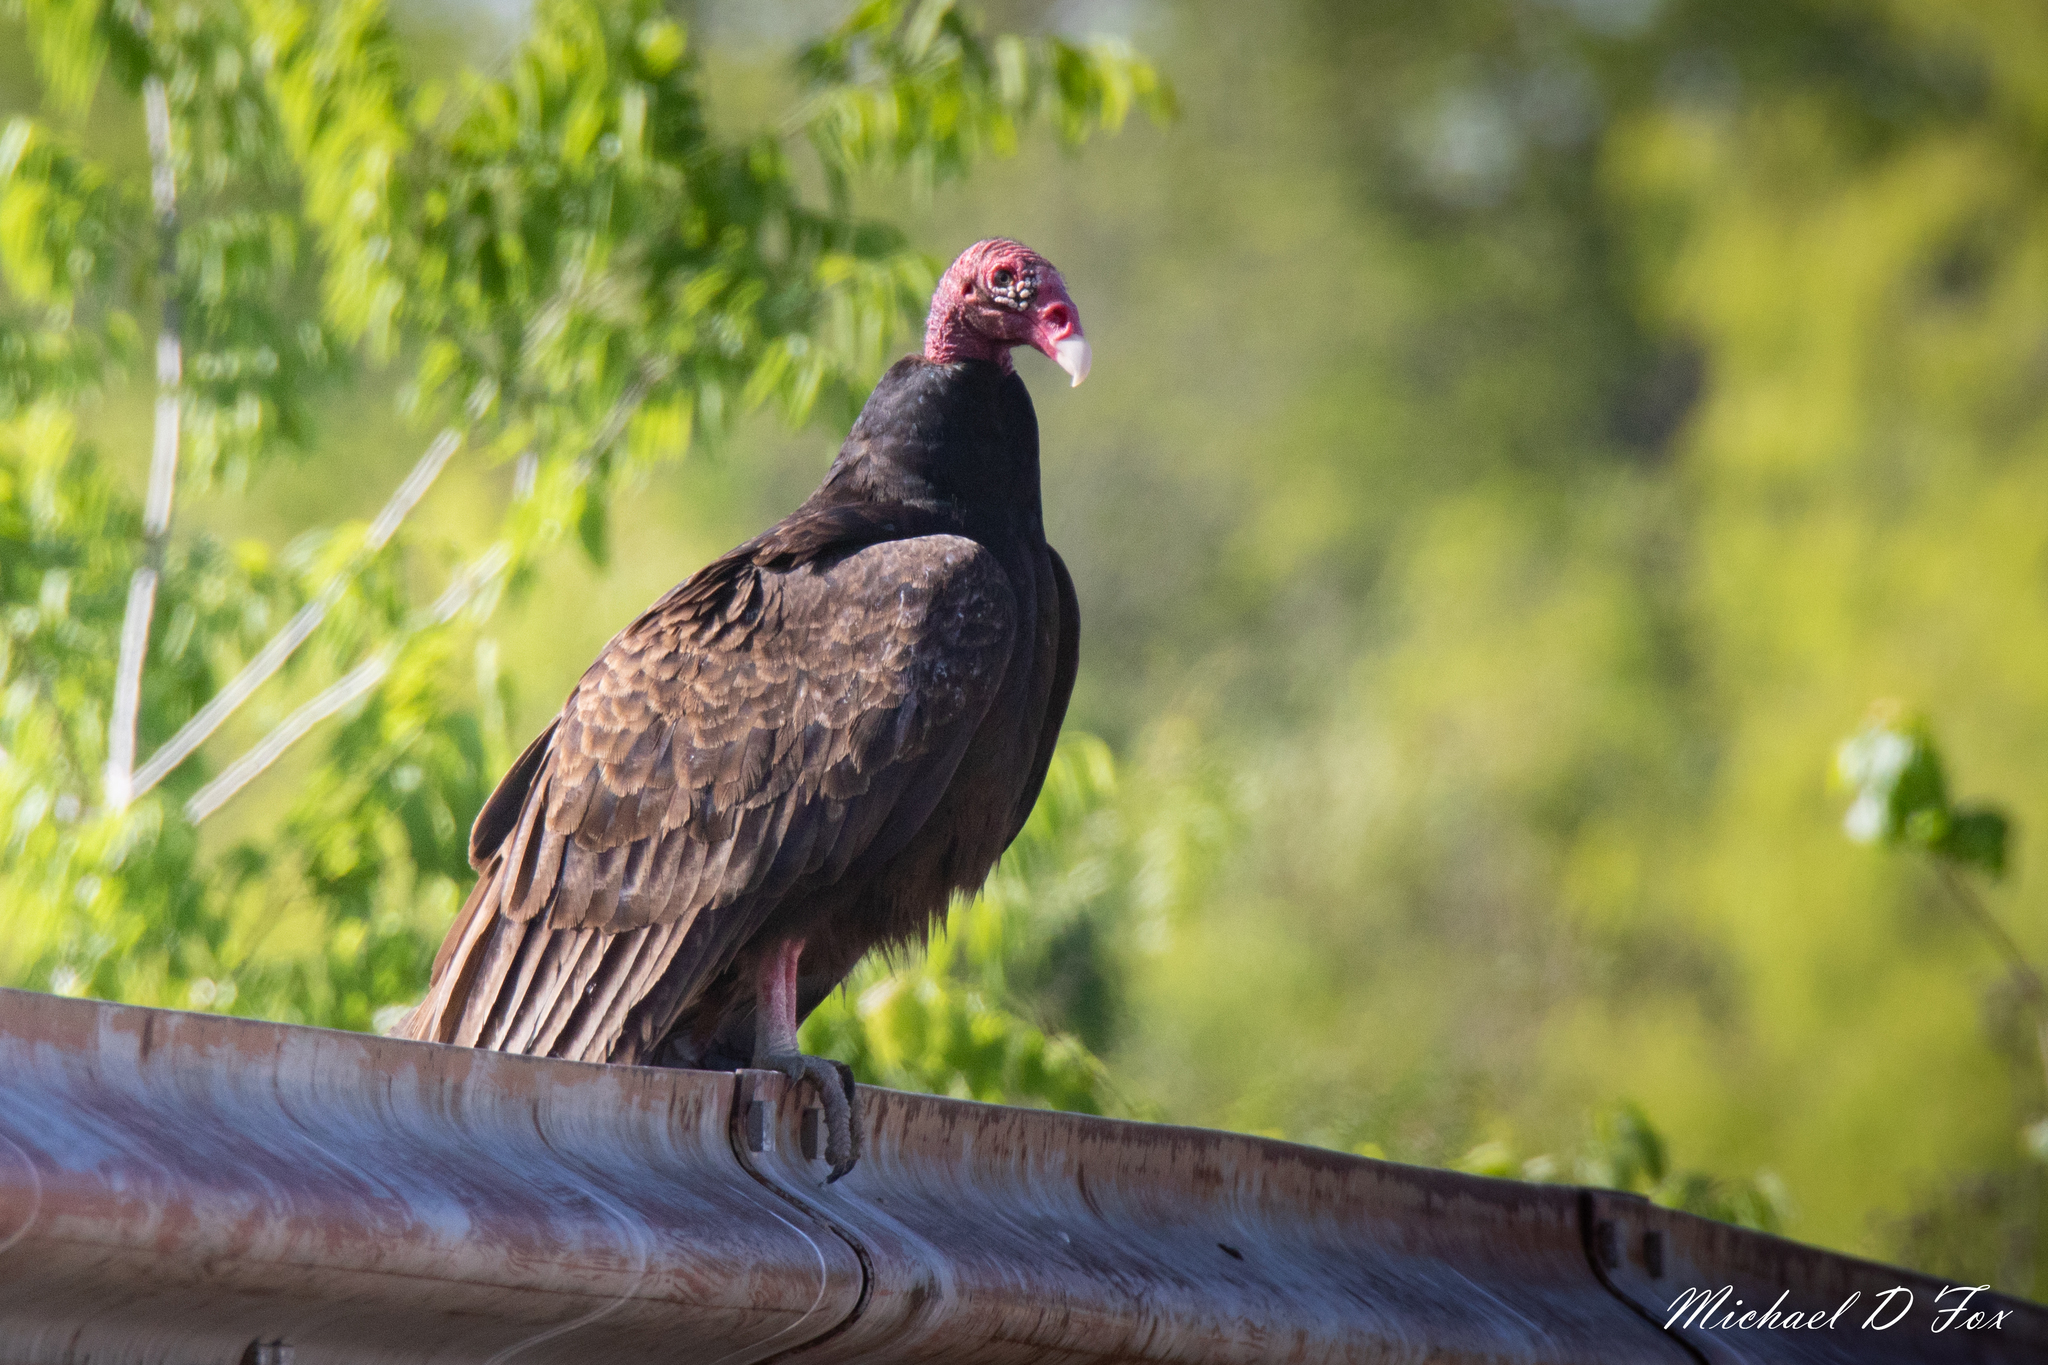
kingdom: Animalia
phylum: Chordata
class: Aves
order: Accipitriformes
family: Cathartidae
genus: Cathartes
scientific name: Cathartes aura
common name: Turkey vulture
